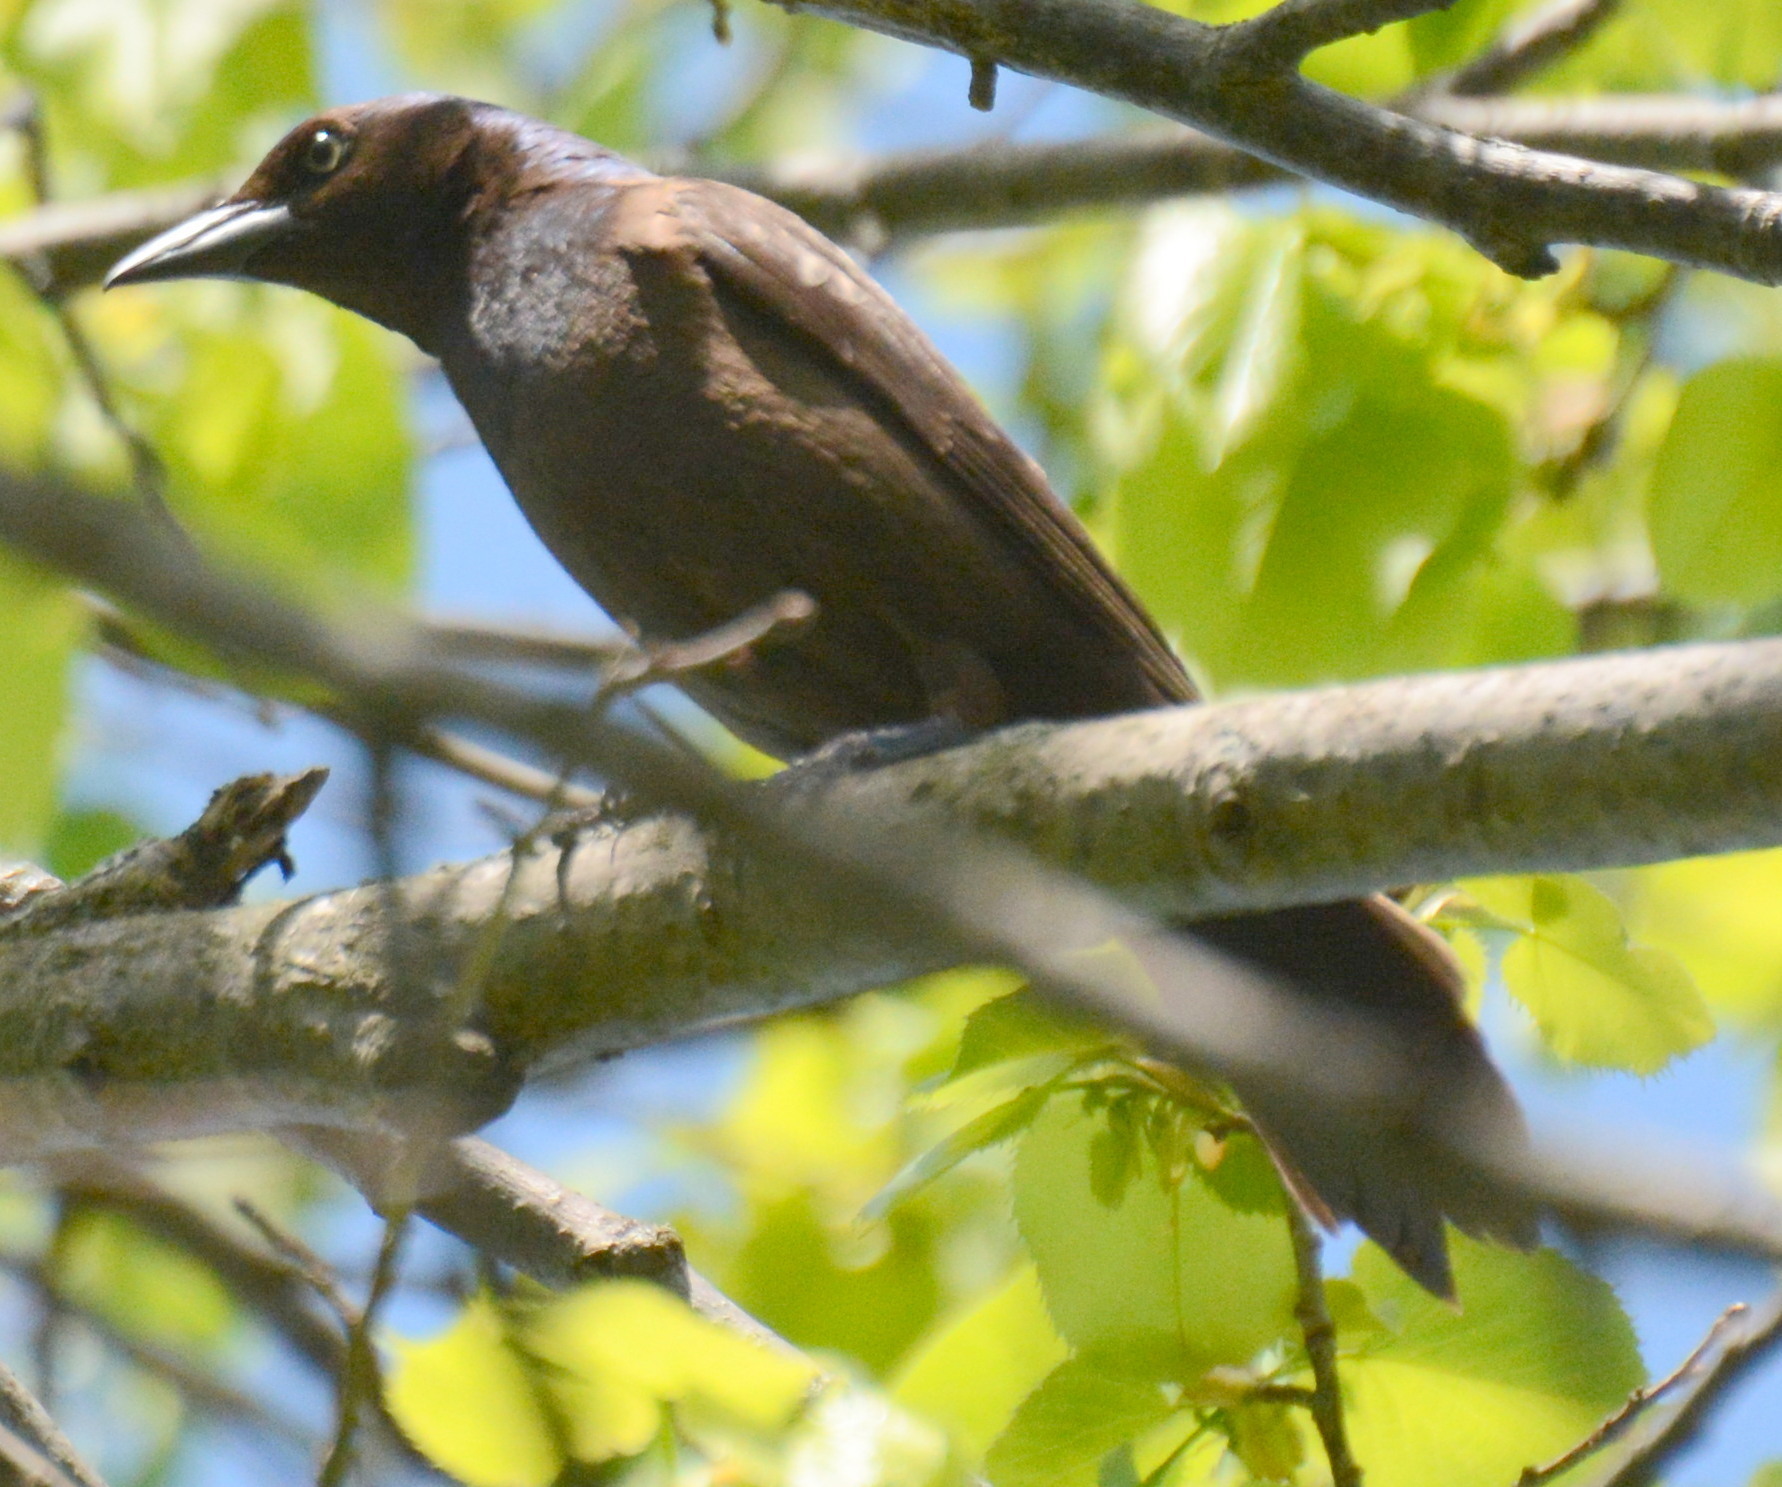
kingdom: Animalia
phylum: Chordata
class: Aves
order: Passeriformes
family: Icteridae
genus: Quiscalus
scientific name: Quiscalus quiscula
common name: Common grackle
